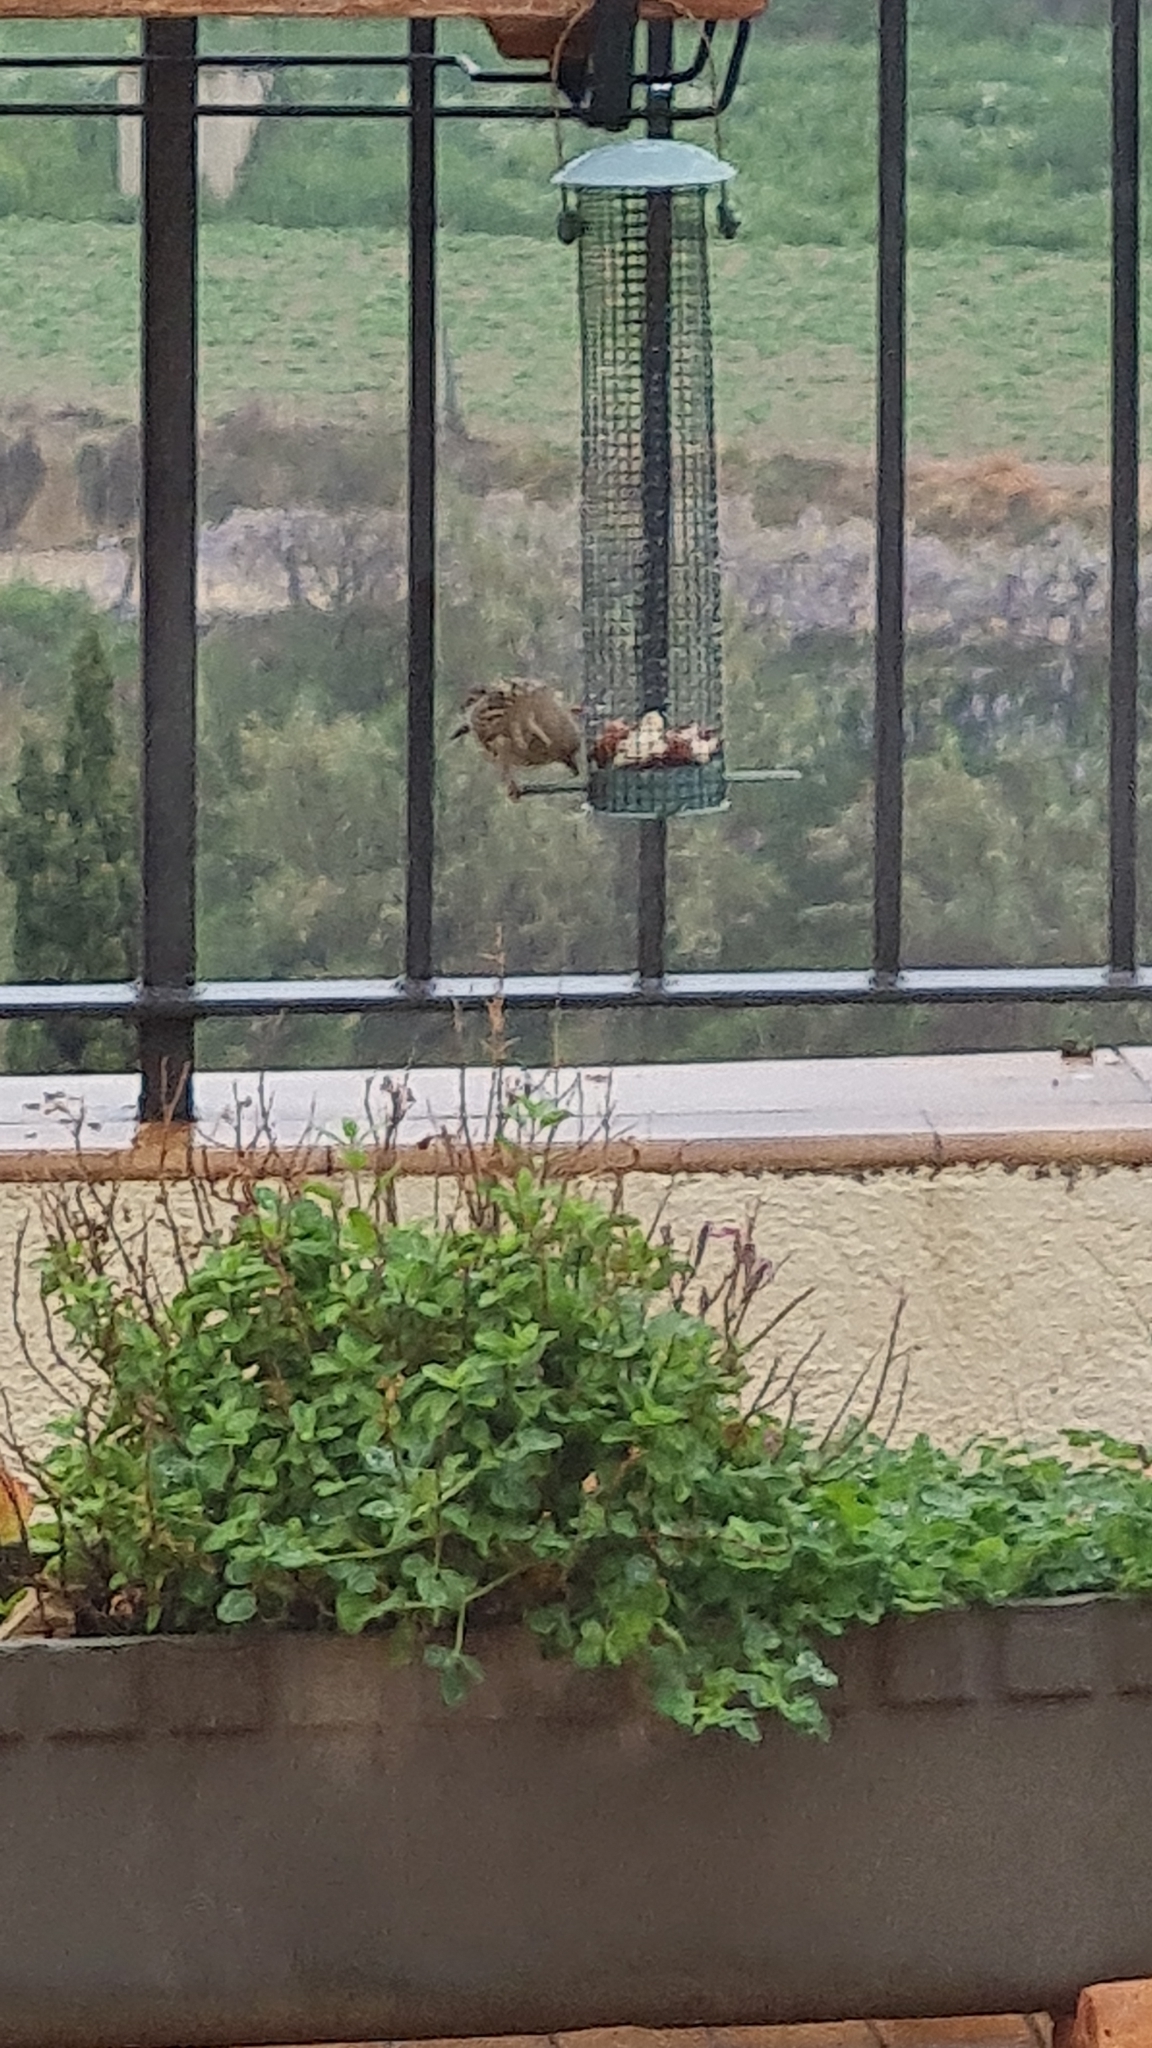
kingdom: Animalia
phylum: Chordata
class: Aves
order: Passeriformes
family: Passeridae
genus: Passer
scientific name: Passer domesticus
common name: House sparrow
